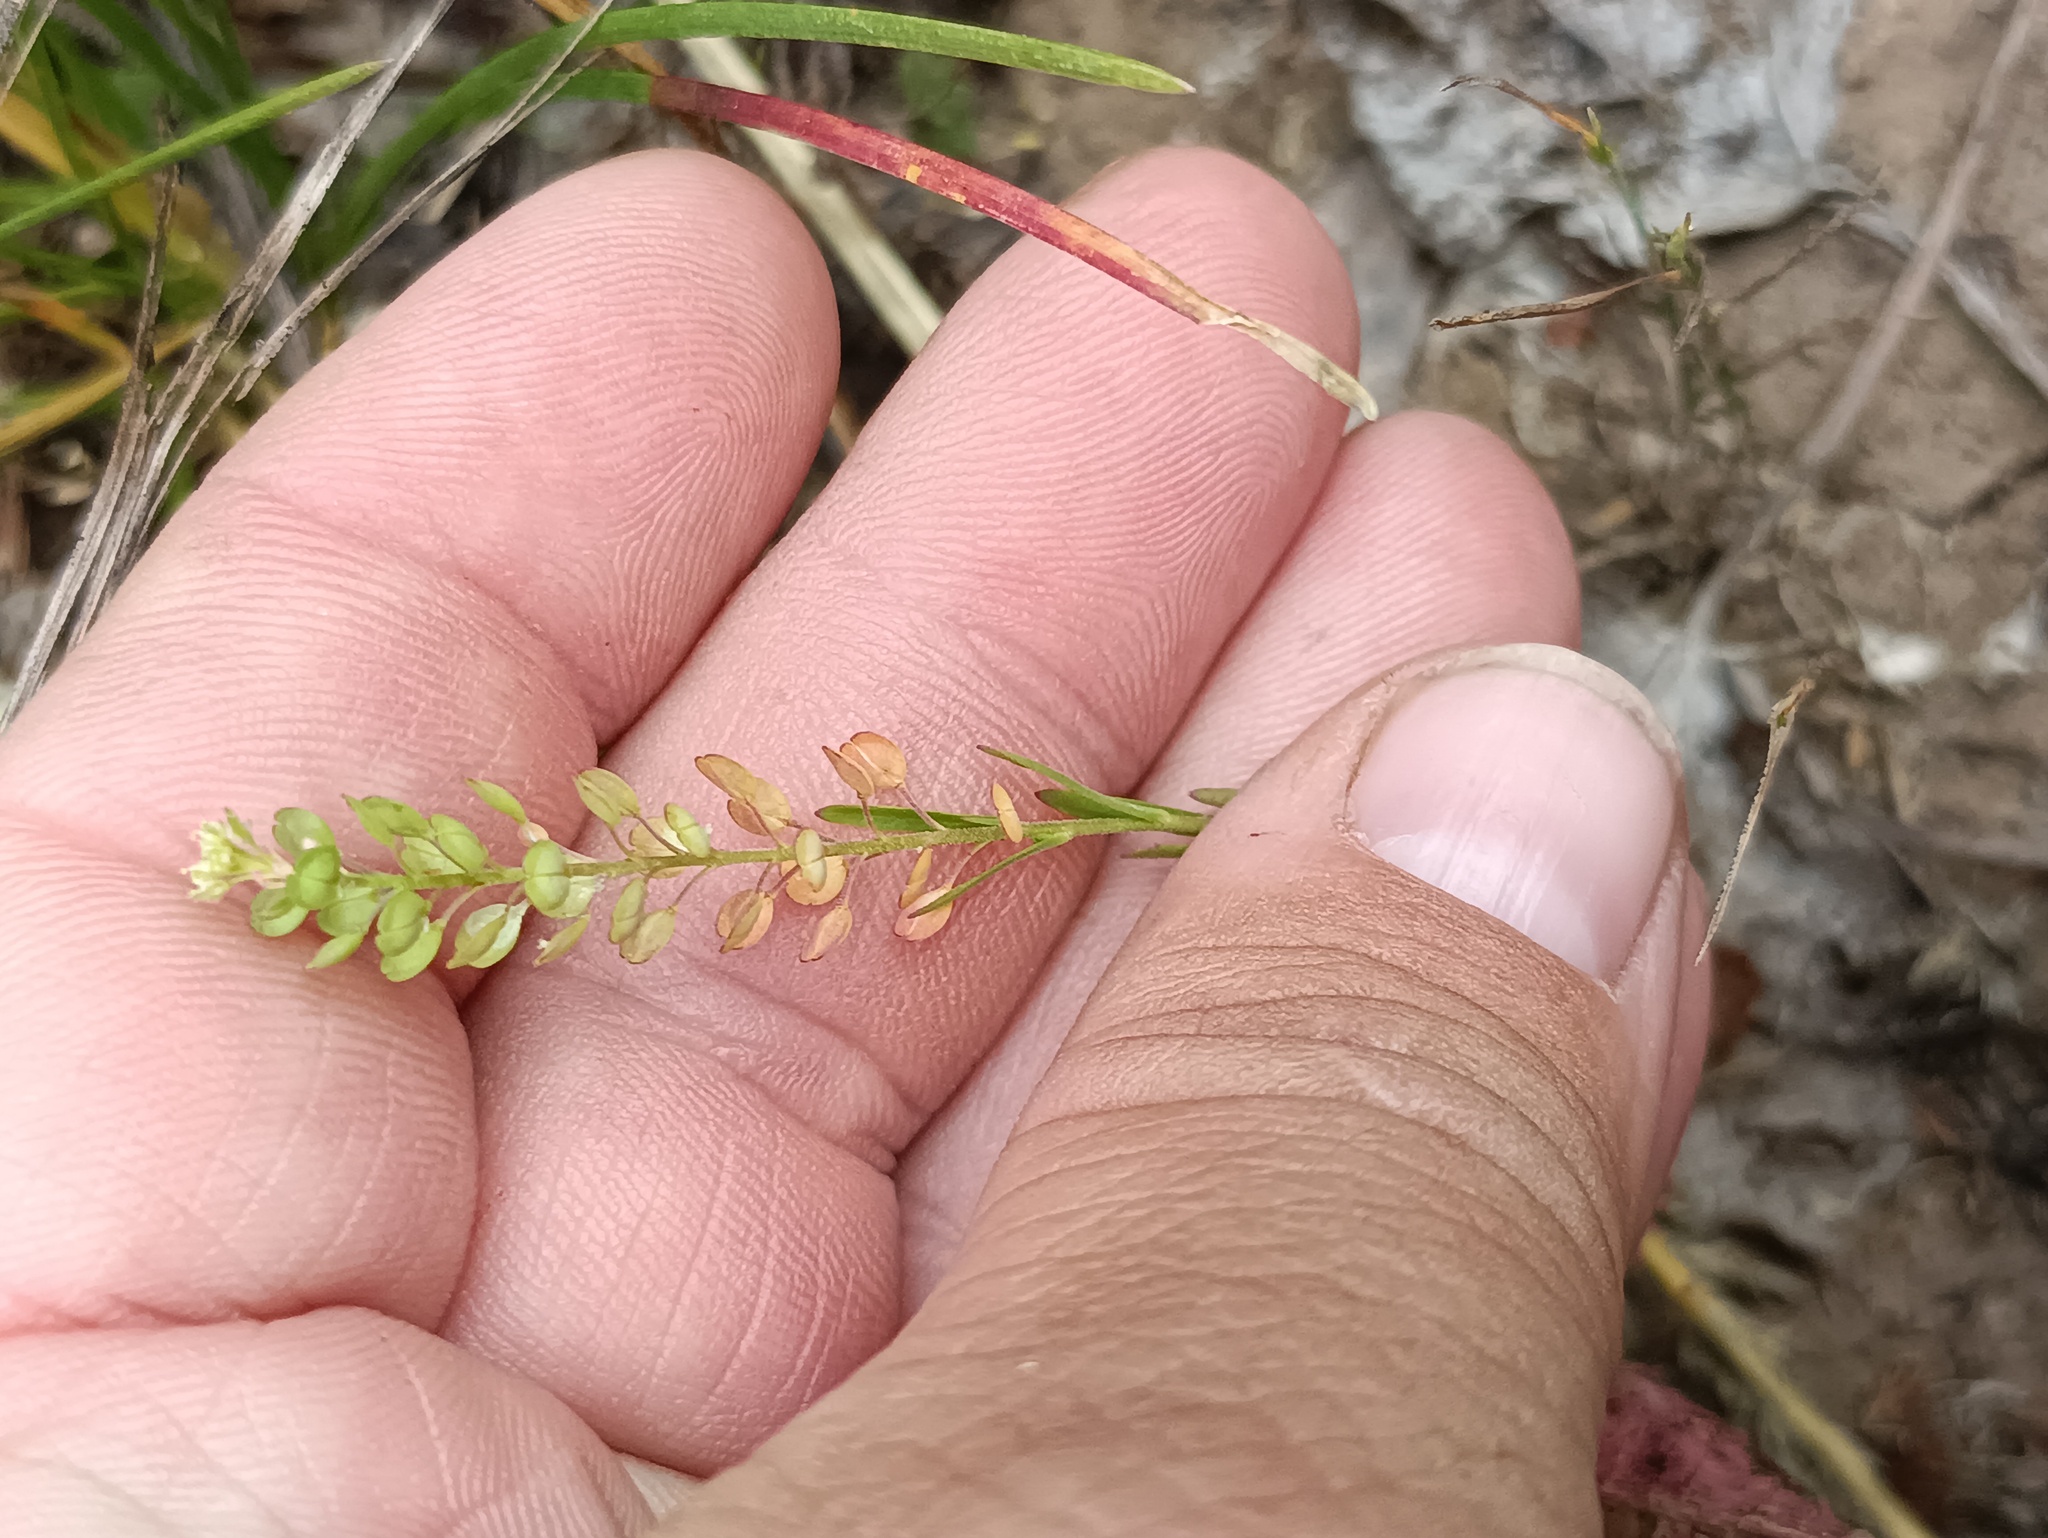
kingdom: Plantae
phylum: Tracheophyta
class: Magnoliopsida
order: Brassicales
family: Brassicaceae
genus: Lepidium
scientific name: Lepidium densiflorum
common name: Miner's pepperwort
